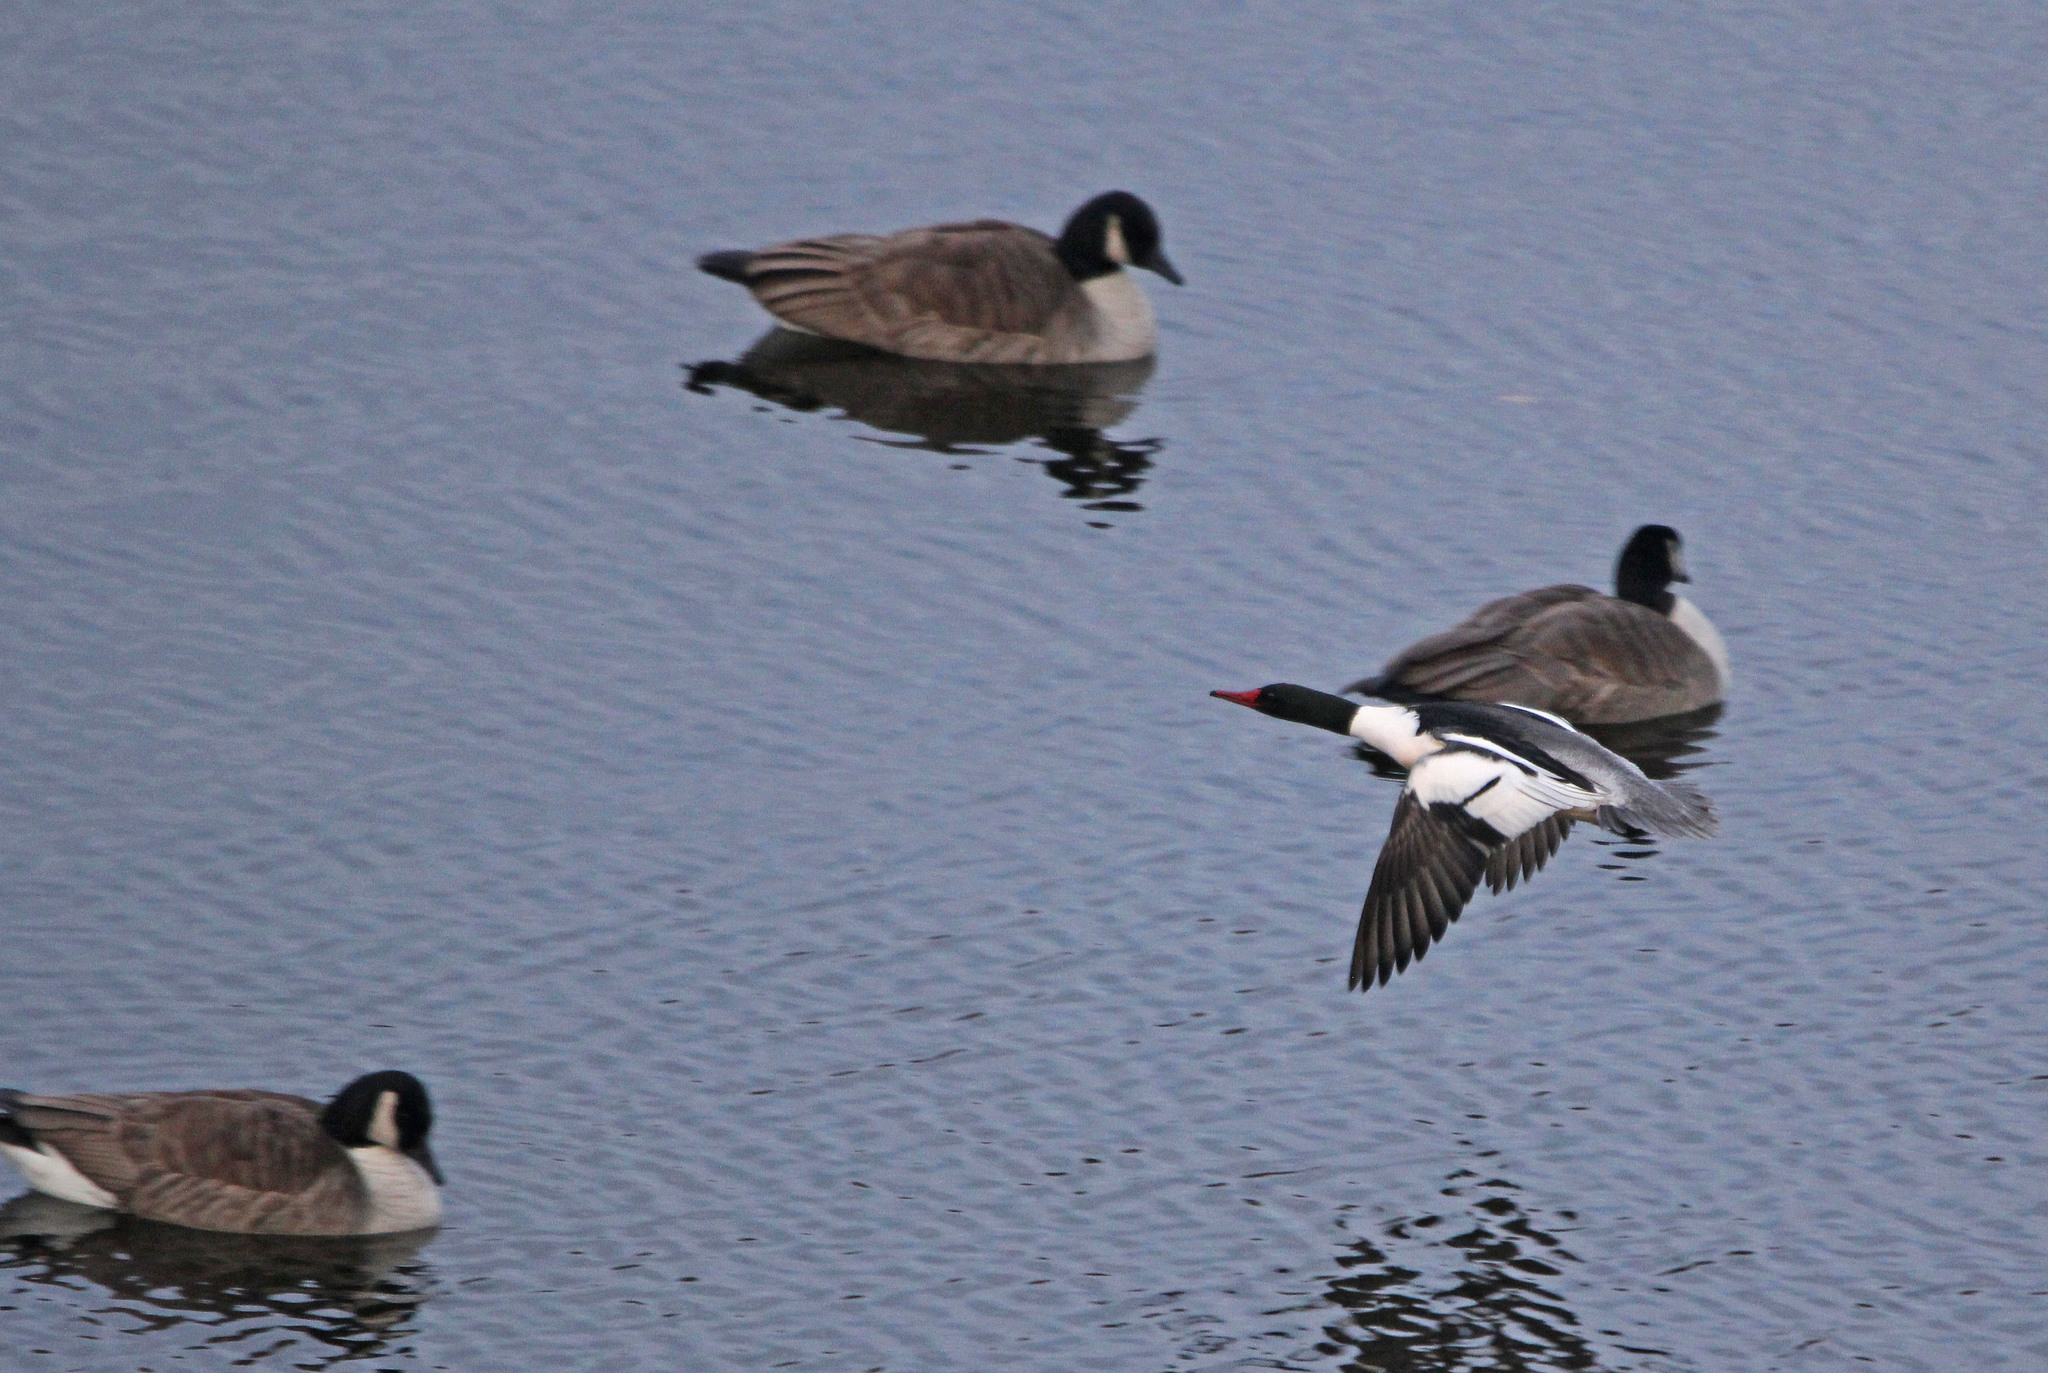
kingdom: Animalia
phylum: Chordata
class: Aves
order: Anseriformes
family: Anatidae
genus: Mergus
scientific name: Mergus merganser
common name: Common merganser
